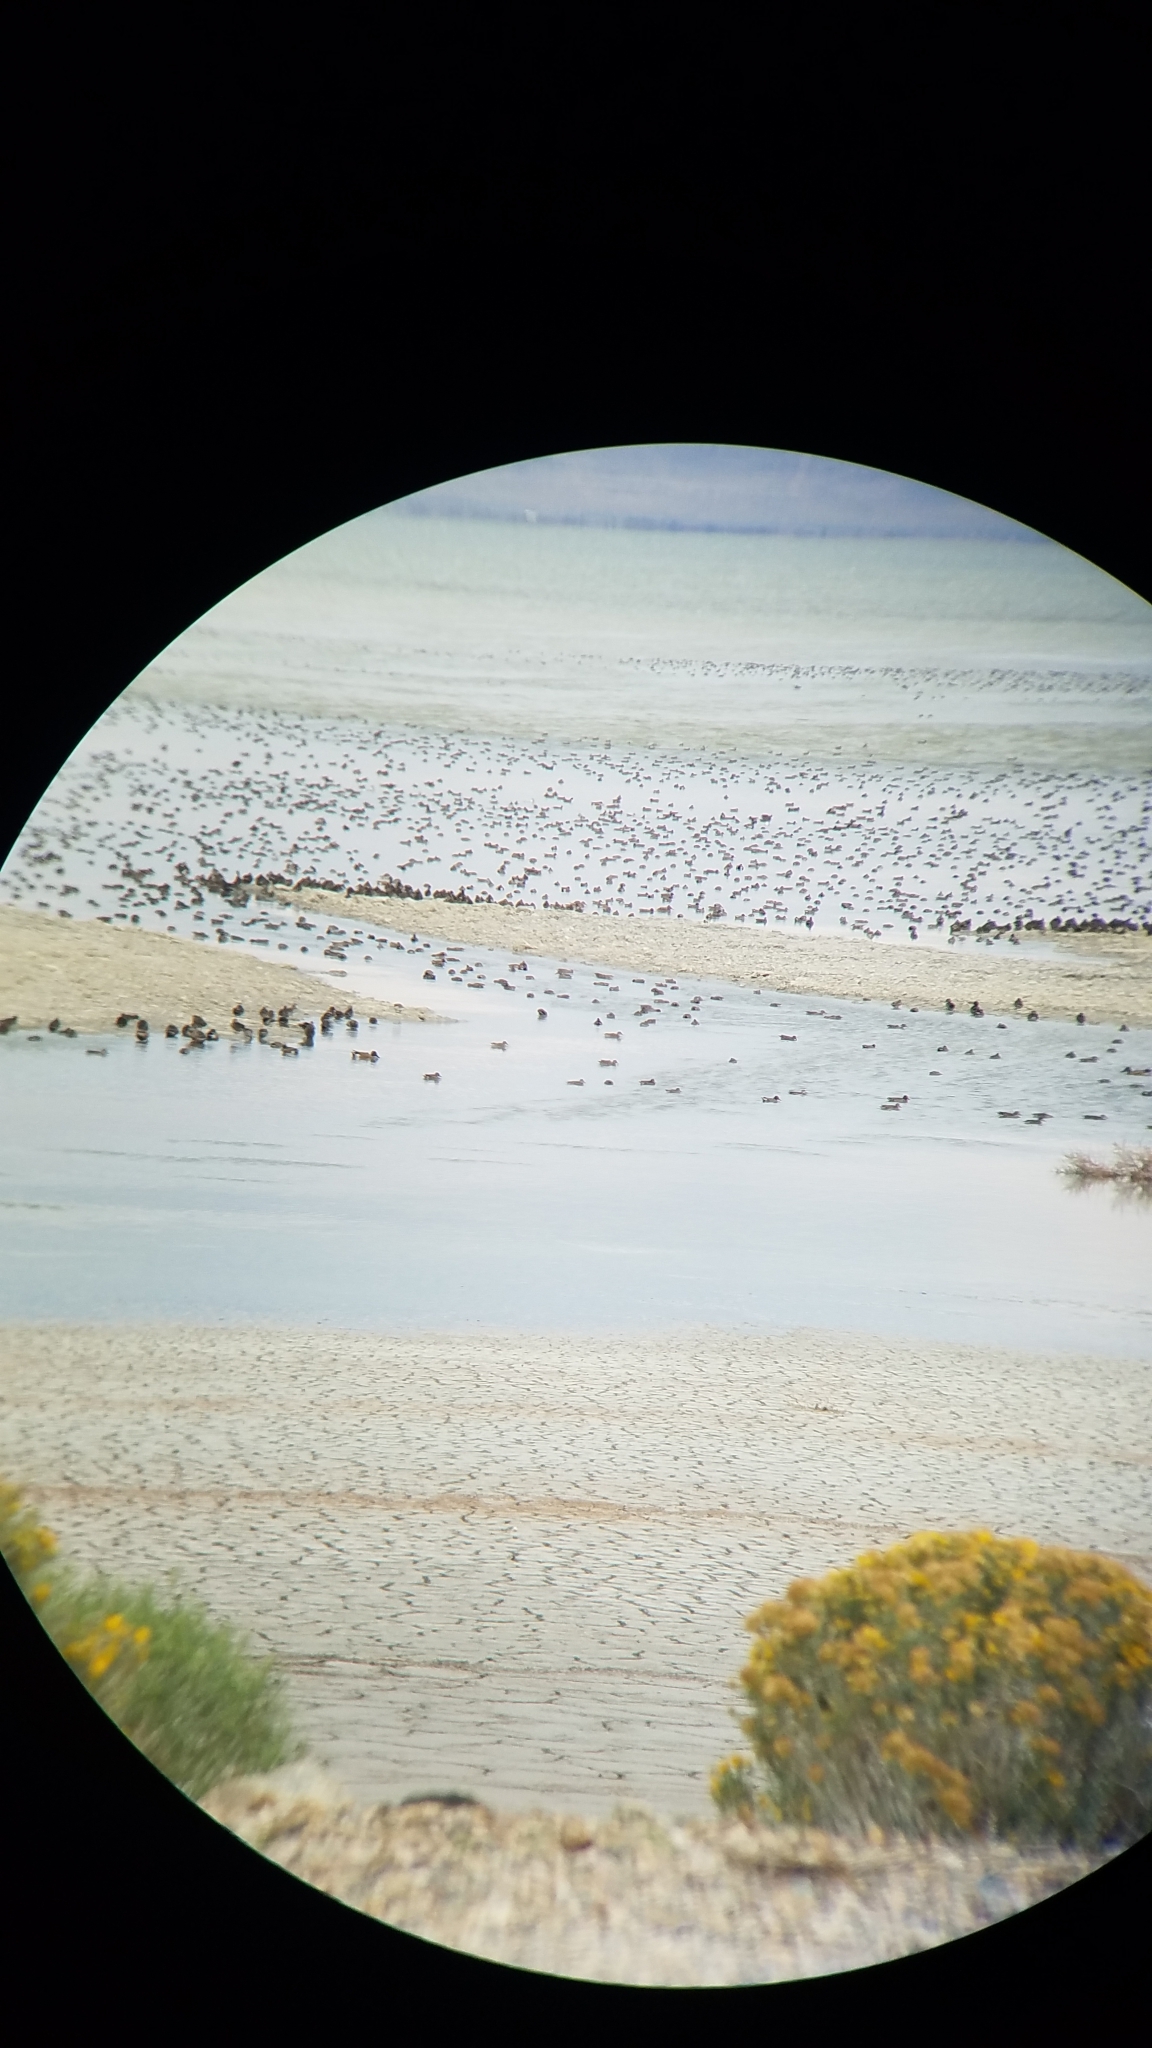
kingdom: Animalia
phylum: Chordata
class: Aves
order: Anseriformes
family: Anatidae
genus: Spatula
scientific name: Spatula clypeata
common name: Northern shoveler
